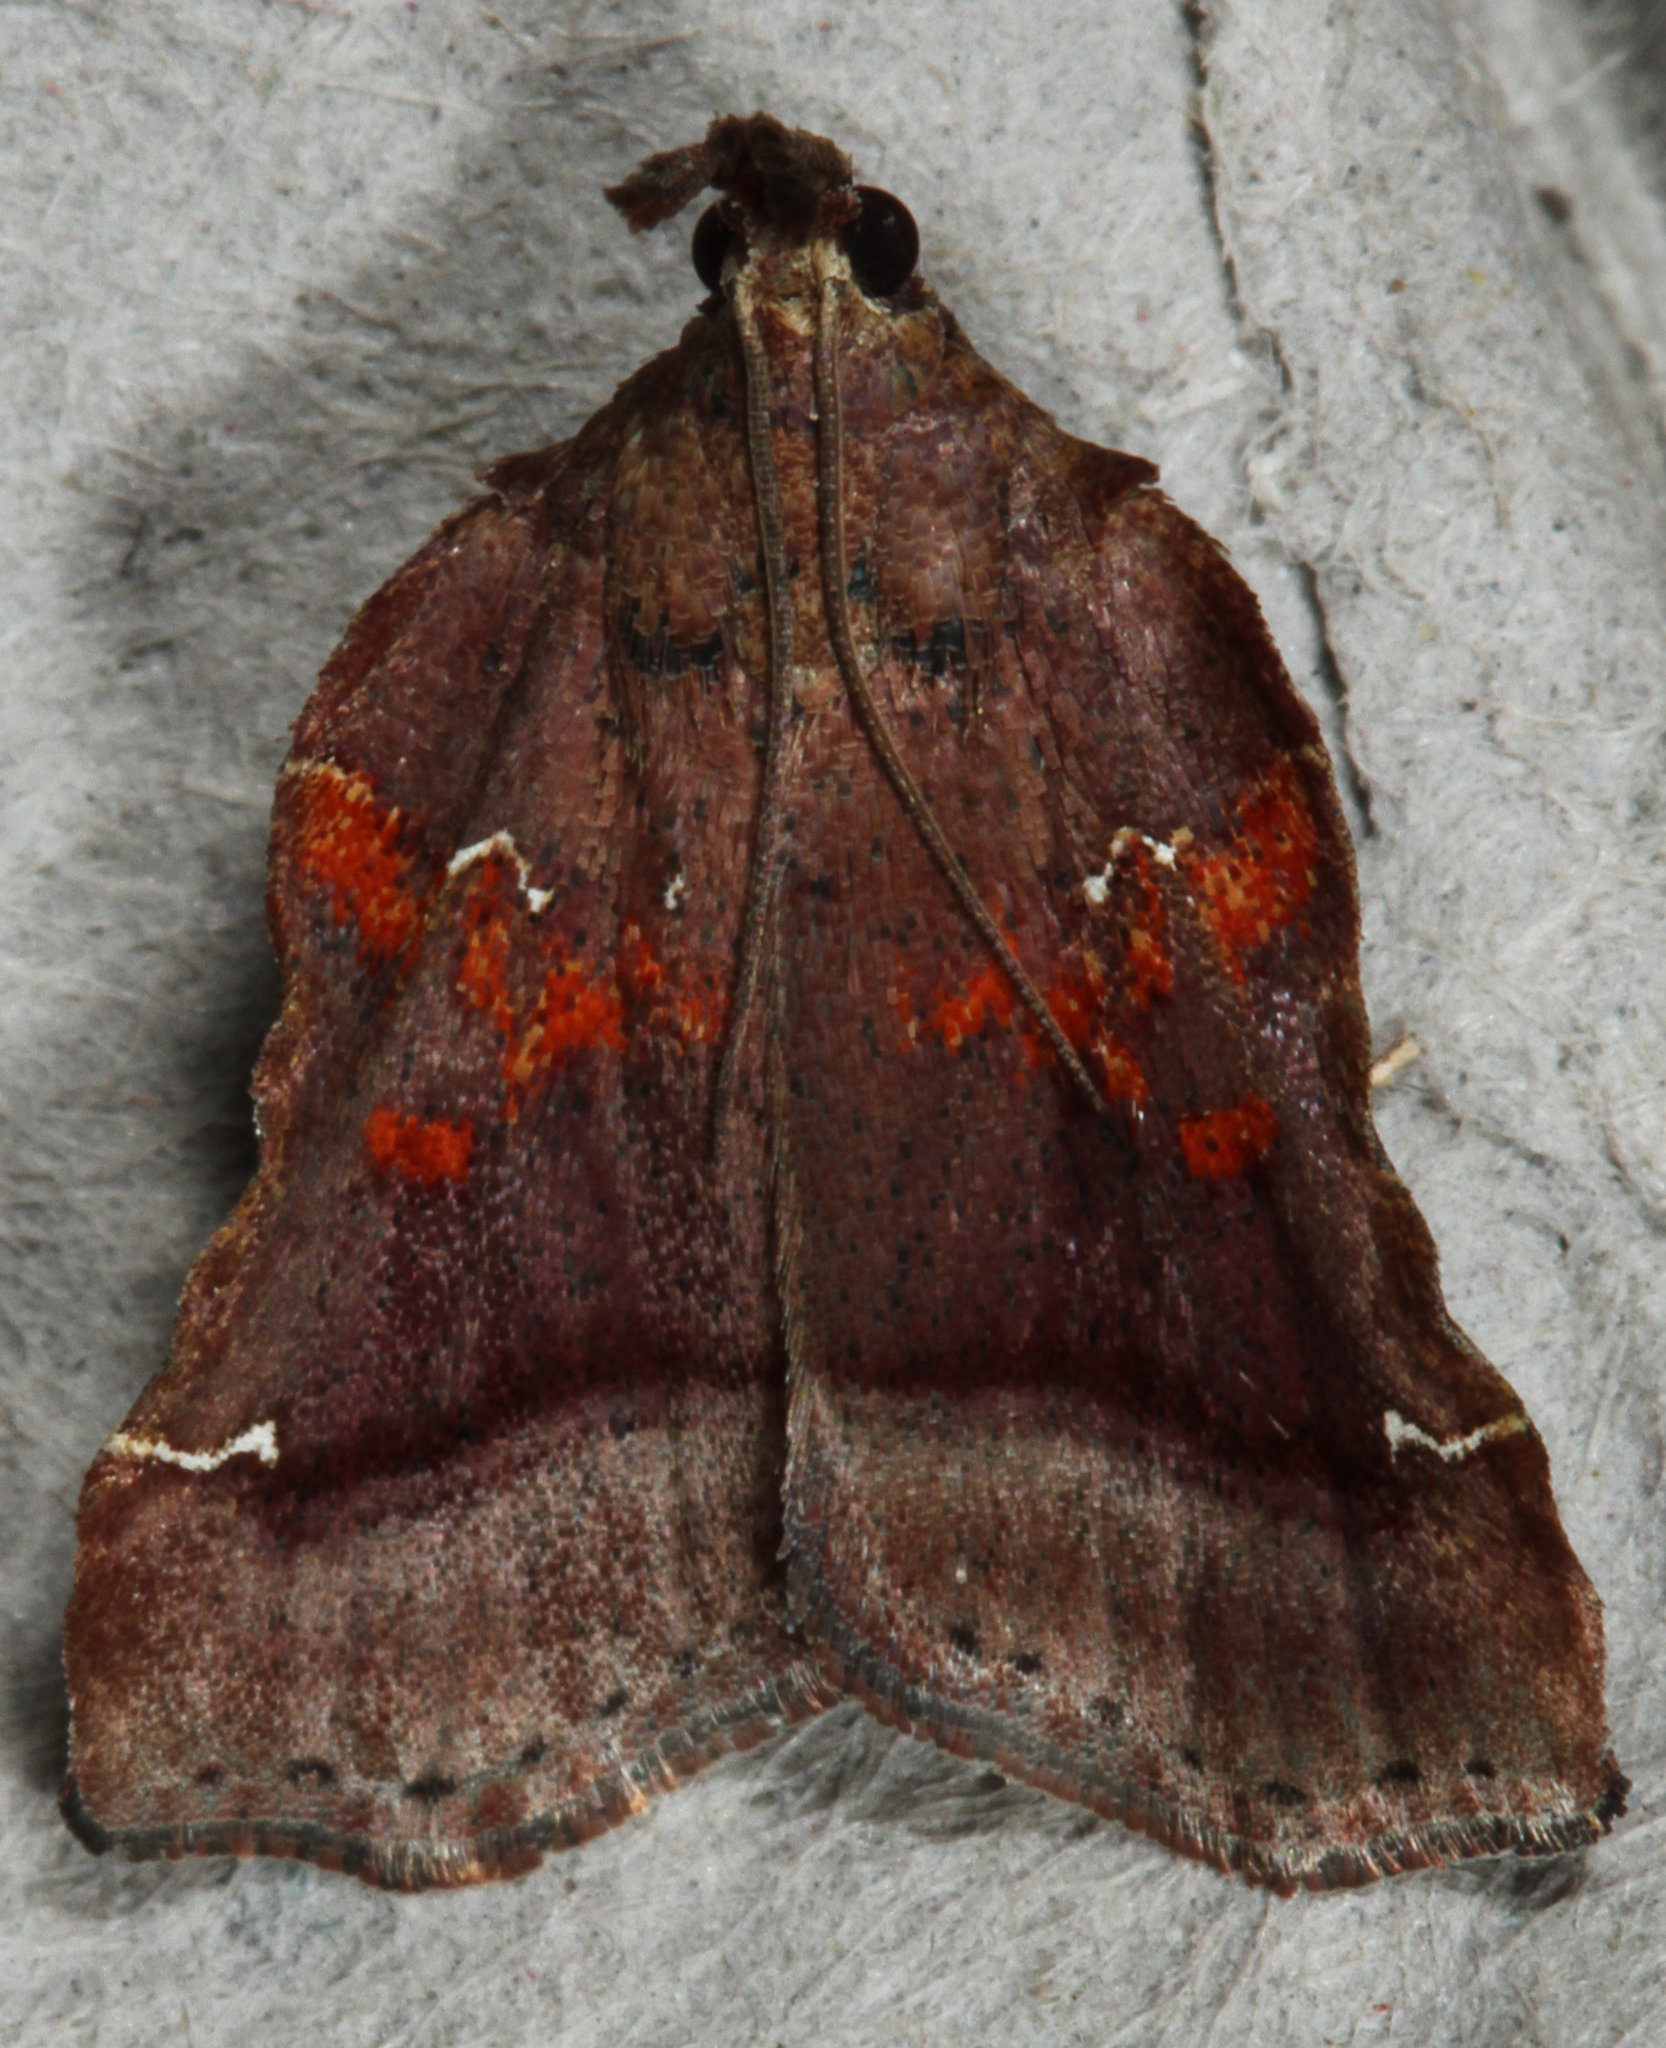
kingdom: Animalia
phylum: Arthropoda
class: Insecta
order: Lepidoptera
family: Pyralidae
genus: Clydonopteron
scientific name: Clydonopteron sacculana
